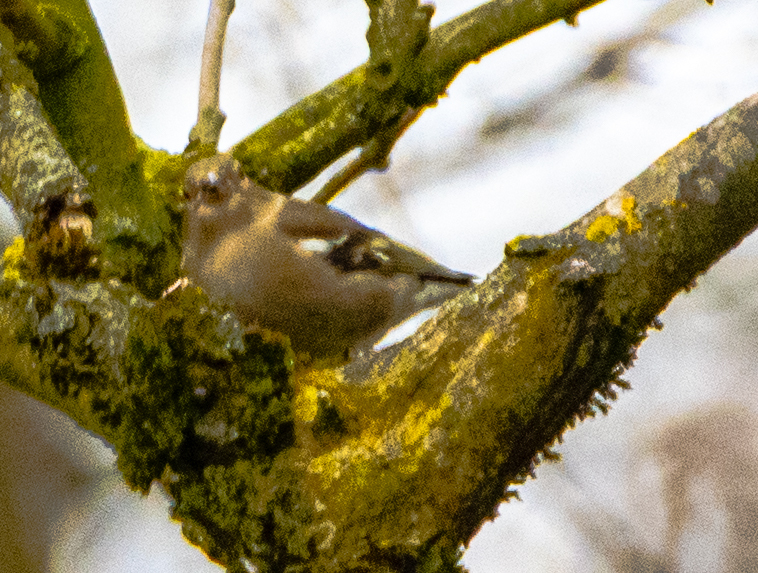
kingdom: Animalia
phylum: Chordata
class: Aves
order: Passeriformes
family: Fringillidae
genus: Fringilla
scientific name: Fringilla coelebs
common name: Common chaffinch
